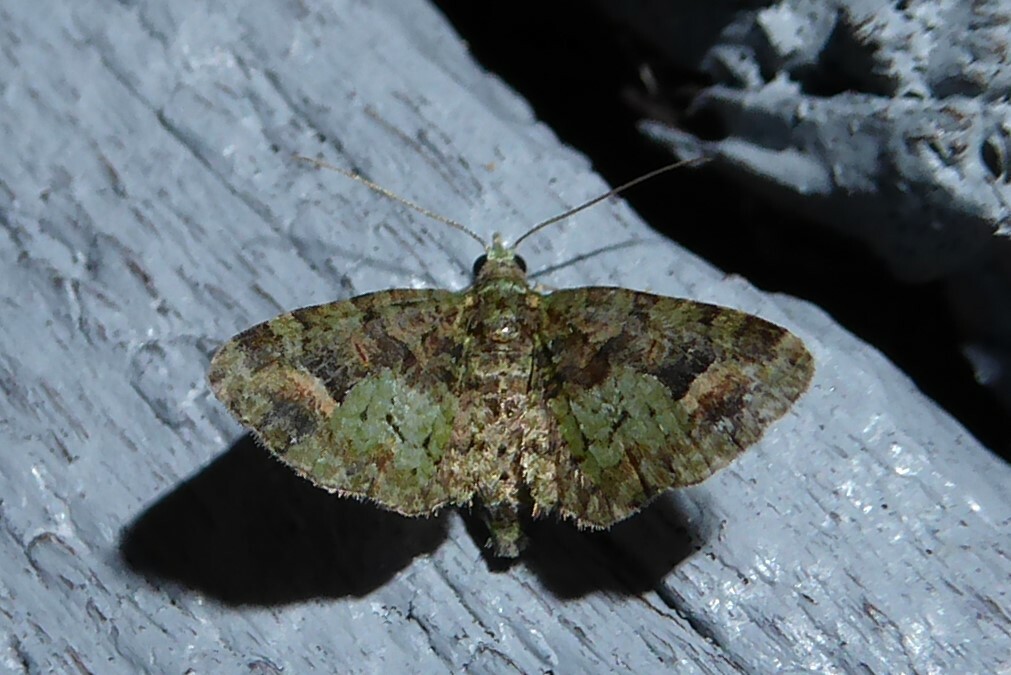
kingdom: Animalia
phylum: Arthropoda
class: Insecta
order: Lepidoptera
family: Geometridae
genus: Idaea
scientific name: Idaea mutanda
